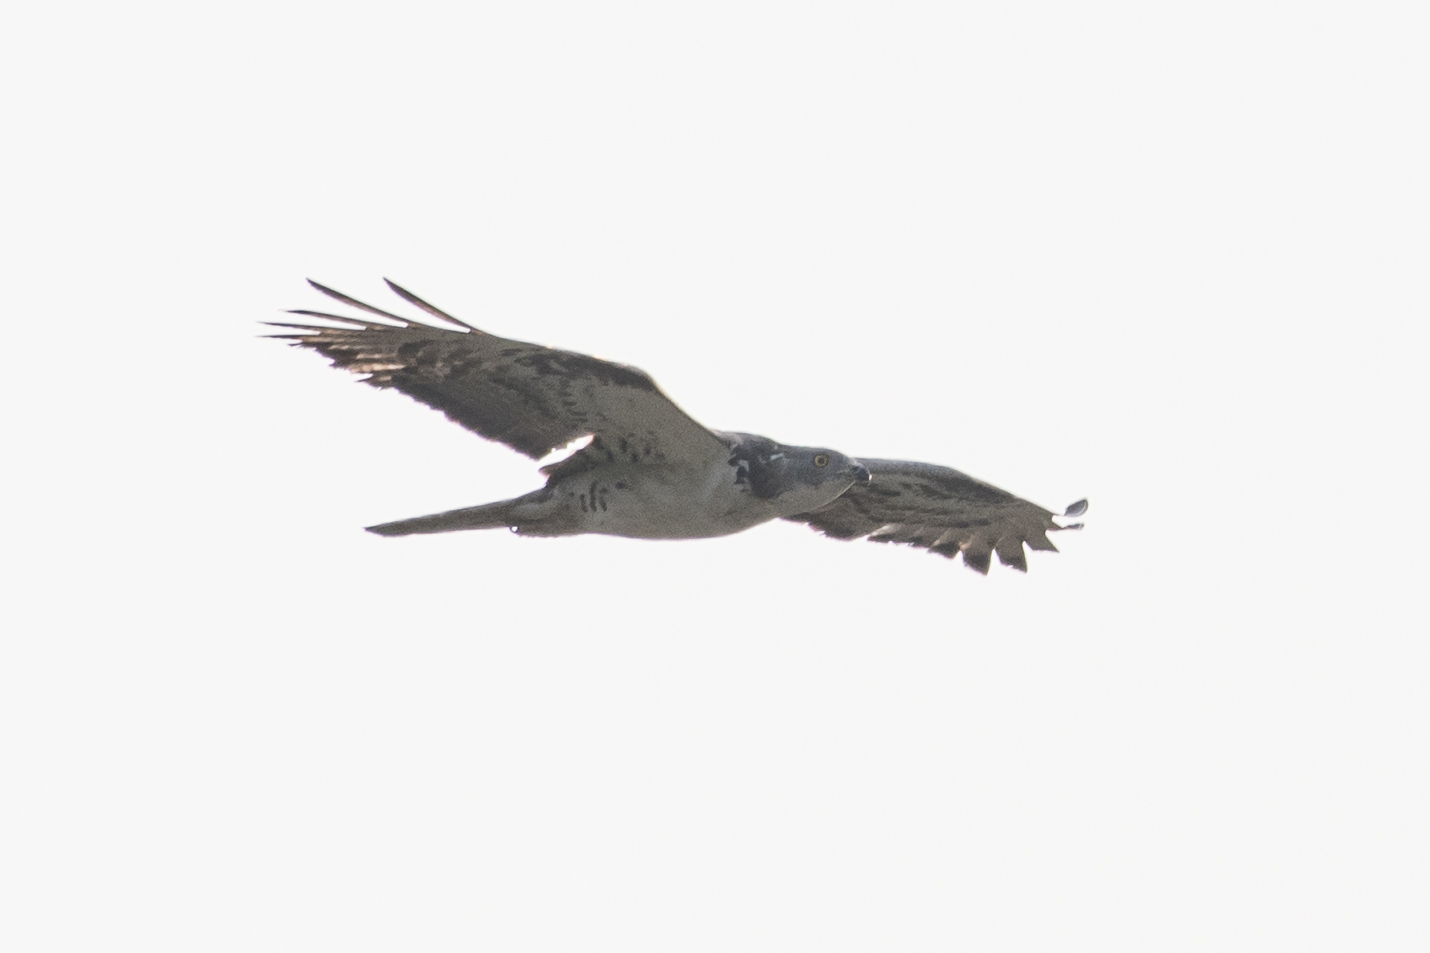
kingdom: Animalia
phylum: Chordata
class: Aves
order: Accipitriformes
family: Accipitridae
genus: Pernis
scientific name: Pernis apivorus
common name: European honey buzzard
